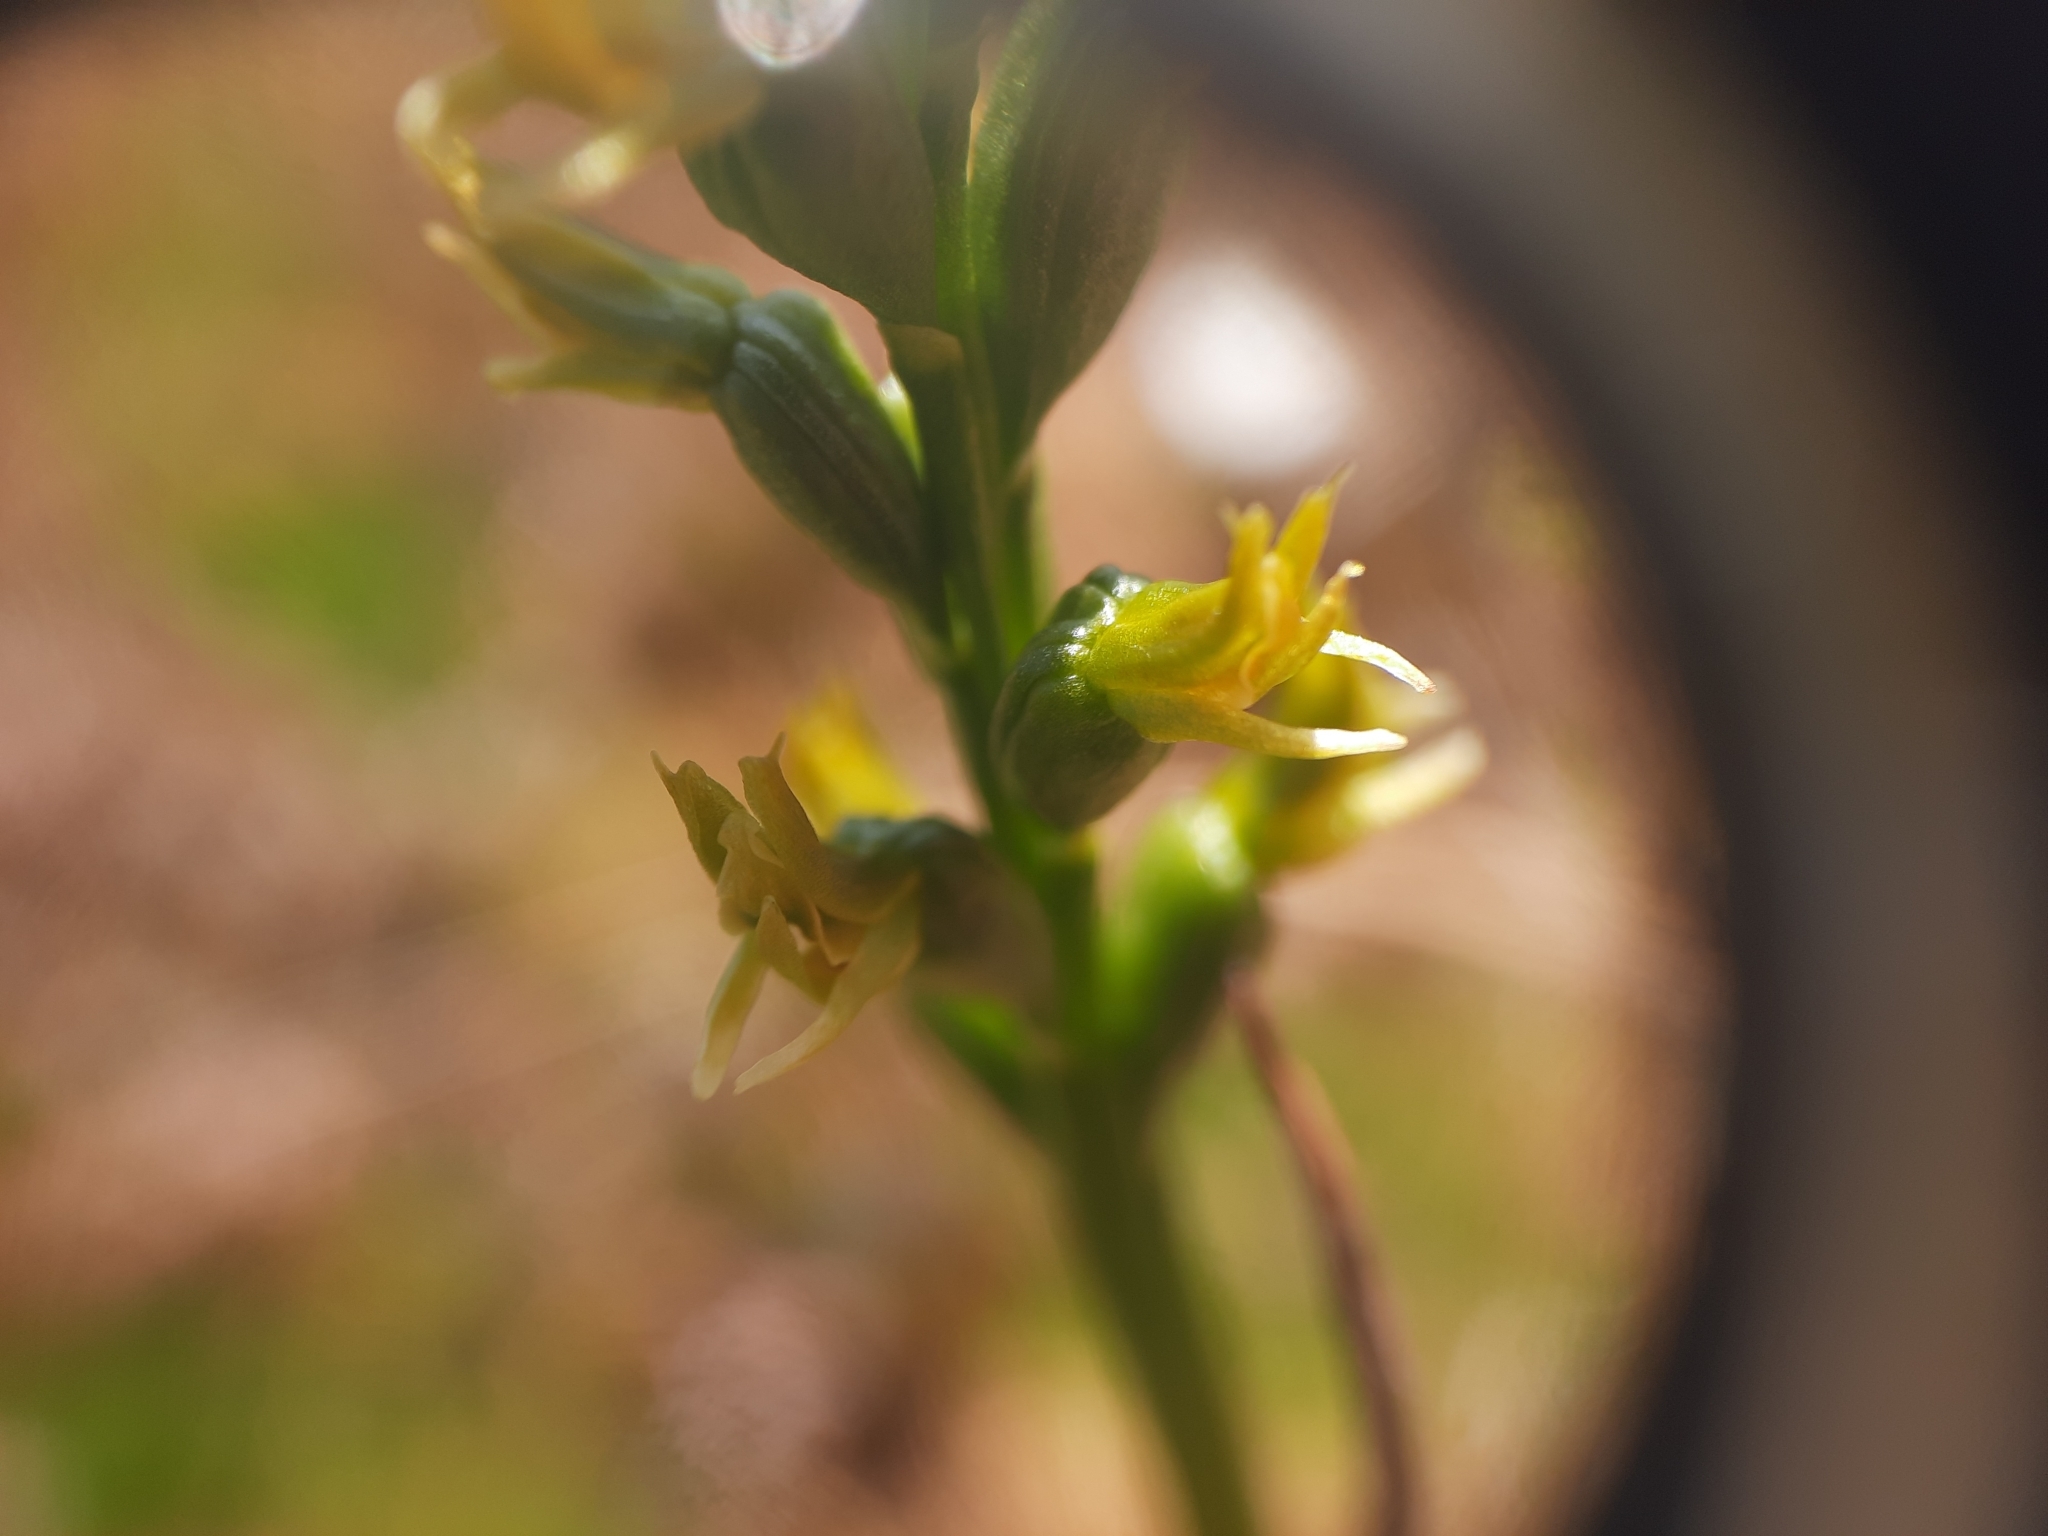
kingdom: Plantae
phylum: Tracheophyta
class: Liliopsida
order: Asparagales
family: Orchidaceae
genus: Prasophyllum
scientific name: Prasophyllum colensoi
